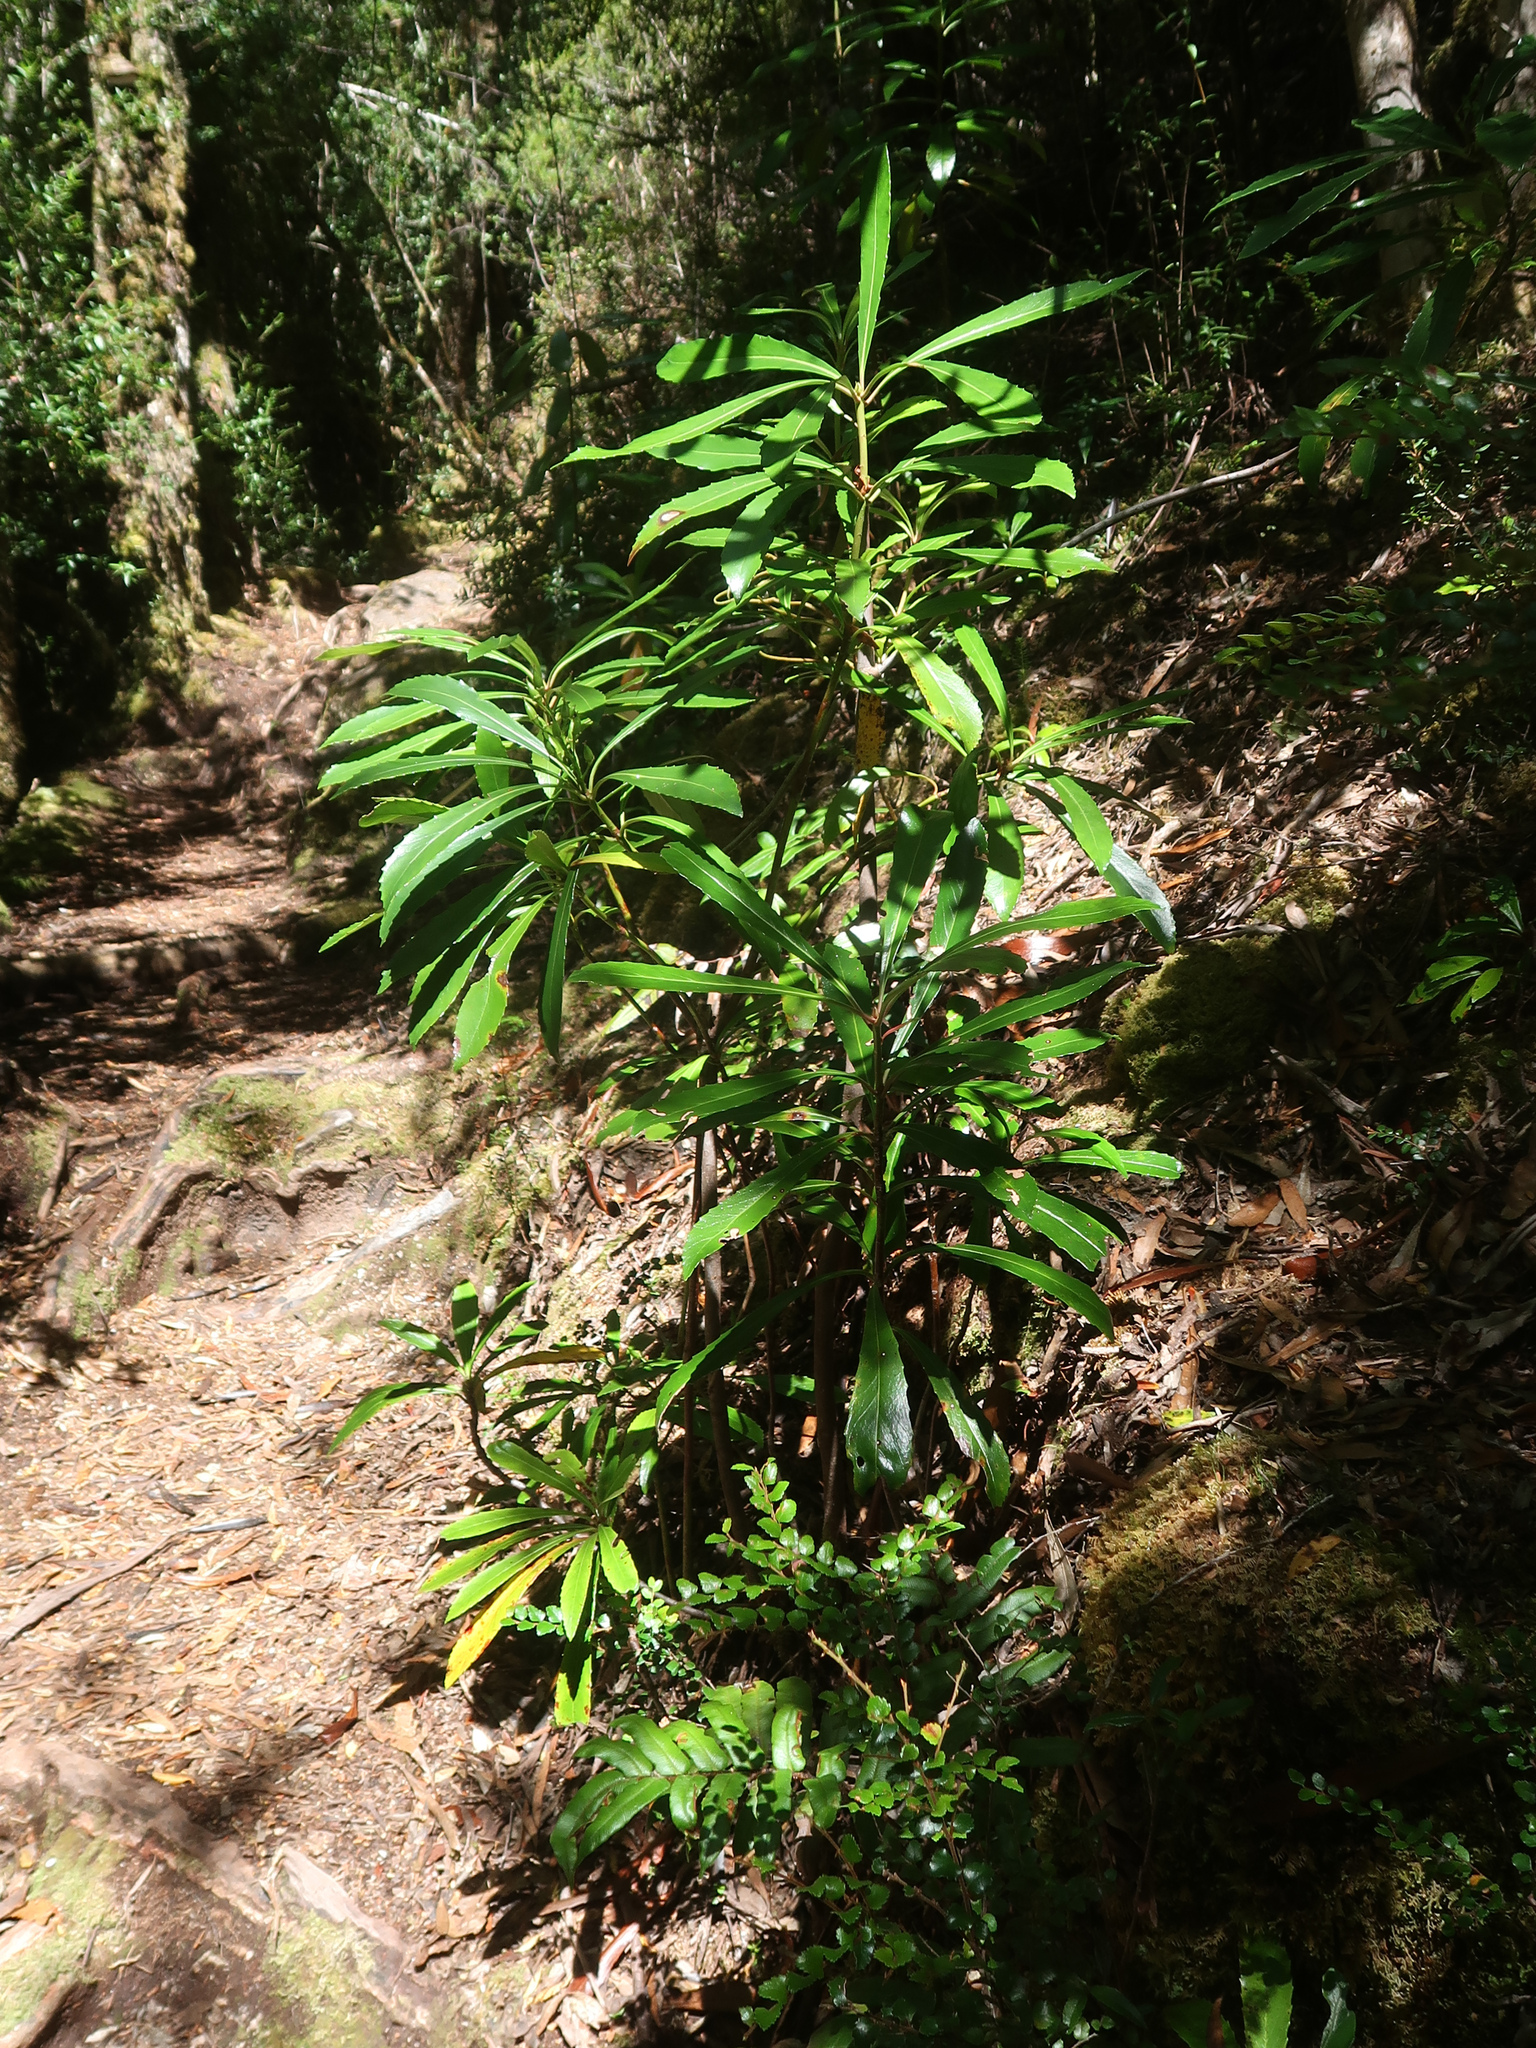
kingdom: Plantae
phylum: Tracheophyta
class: Magnoliopsida
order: Escalloniales
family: Escalloniaceae
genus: Anopterus
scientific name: Anopterus glandulosus
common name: Tasmanian-laurel
